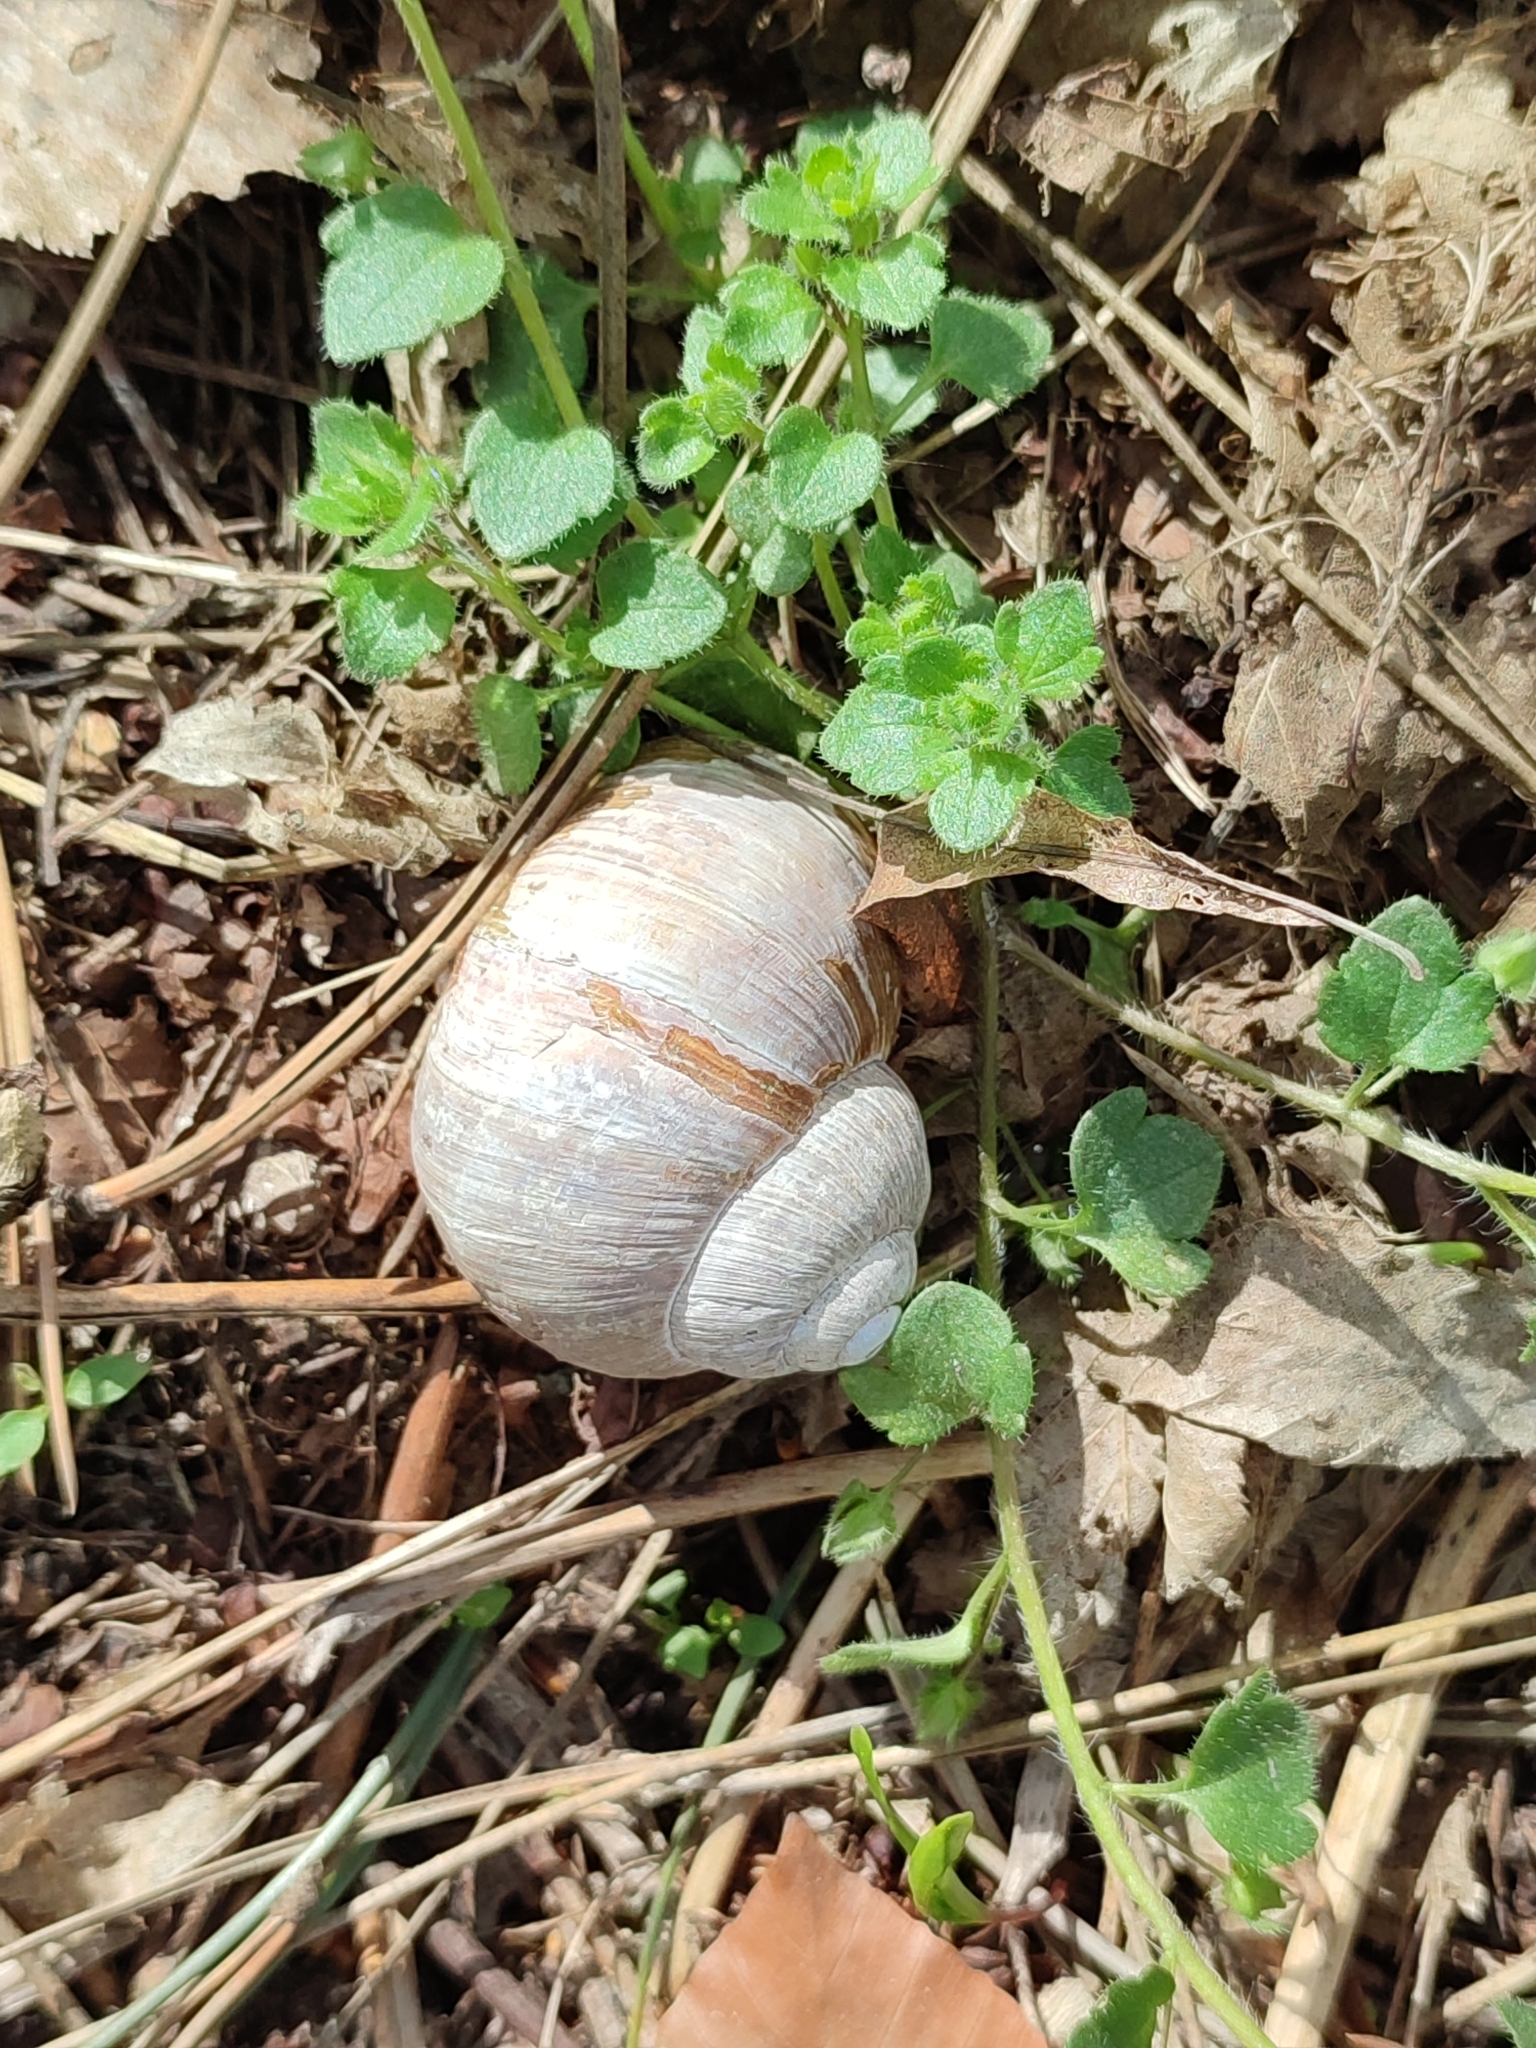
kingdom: Animalia
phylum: Mollusca
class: Gastropoda
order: Stylommatophora
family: Helicidae
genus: Helix
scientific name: Helix pomatia
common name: Roman snail
